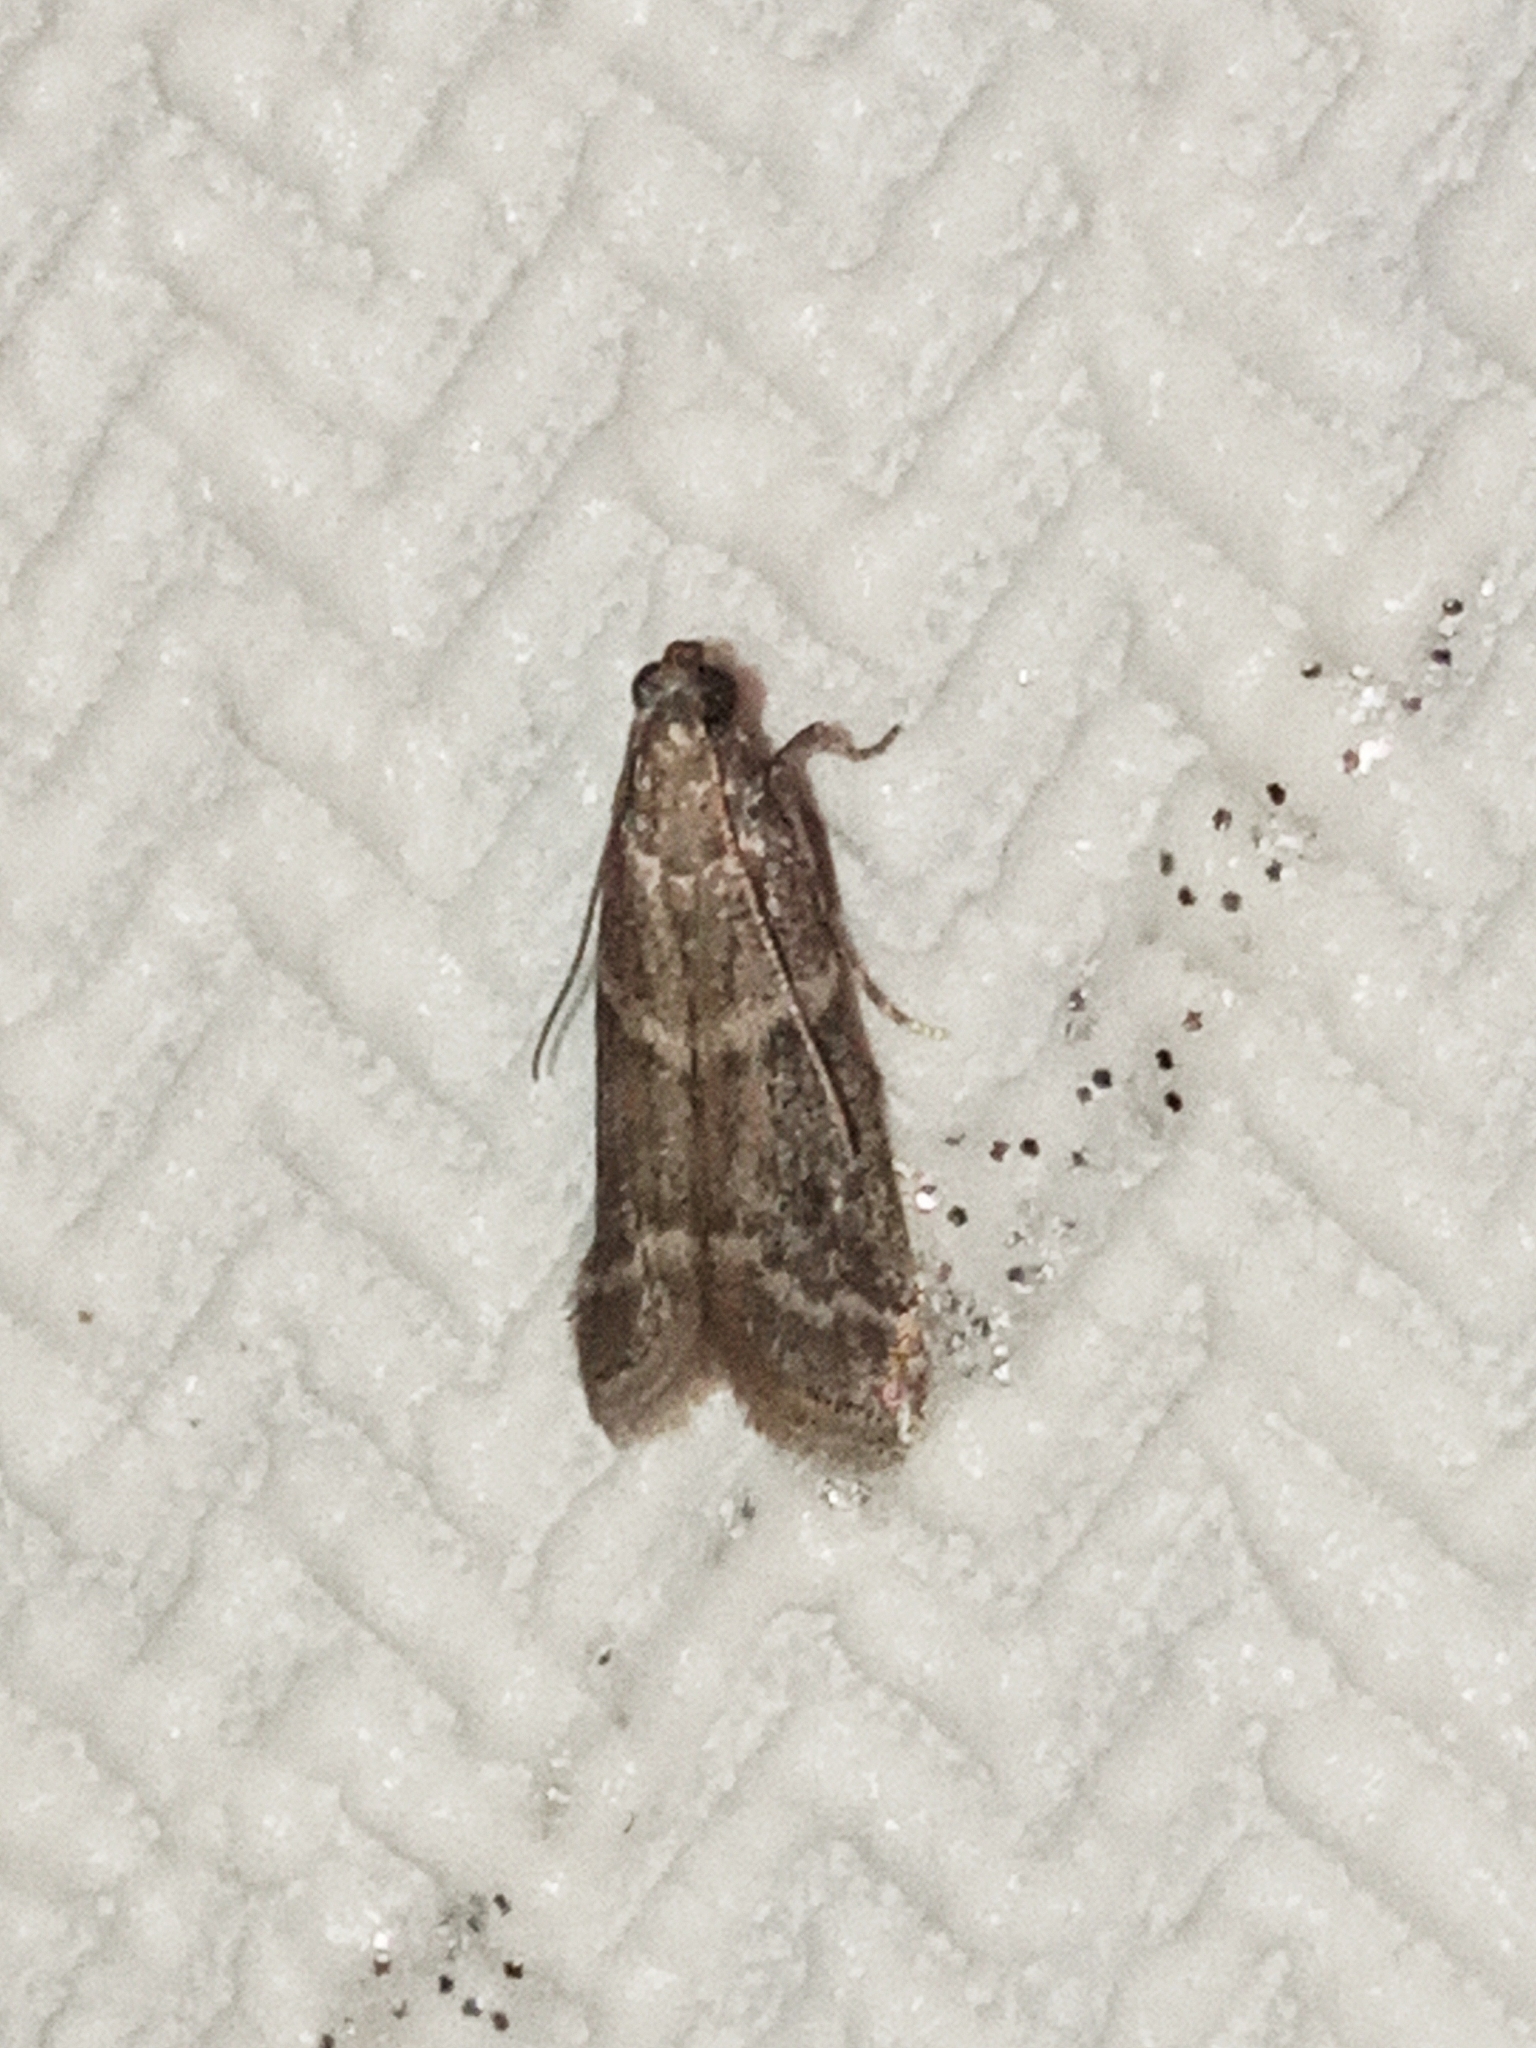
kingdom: Animalia
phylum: Arthropoda
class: Insecta
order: Lepidoptera
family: Pyralidae
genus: Ephestia
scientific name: Ephestia elutella
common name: Cacao moth
